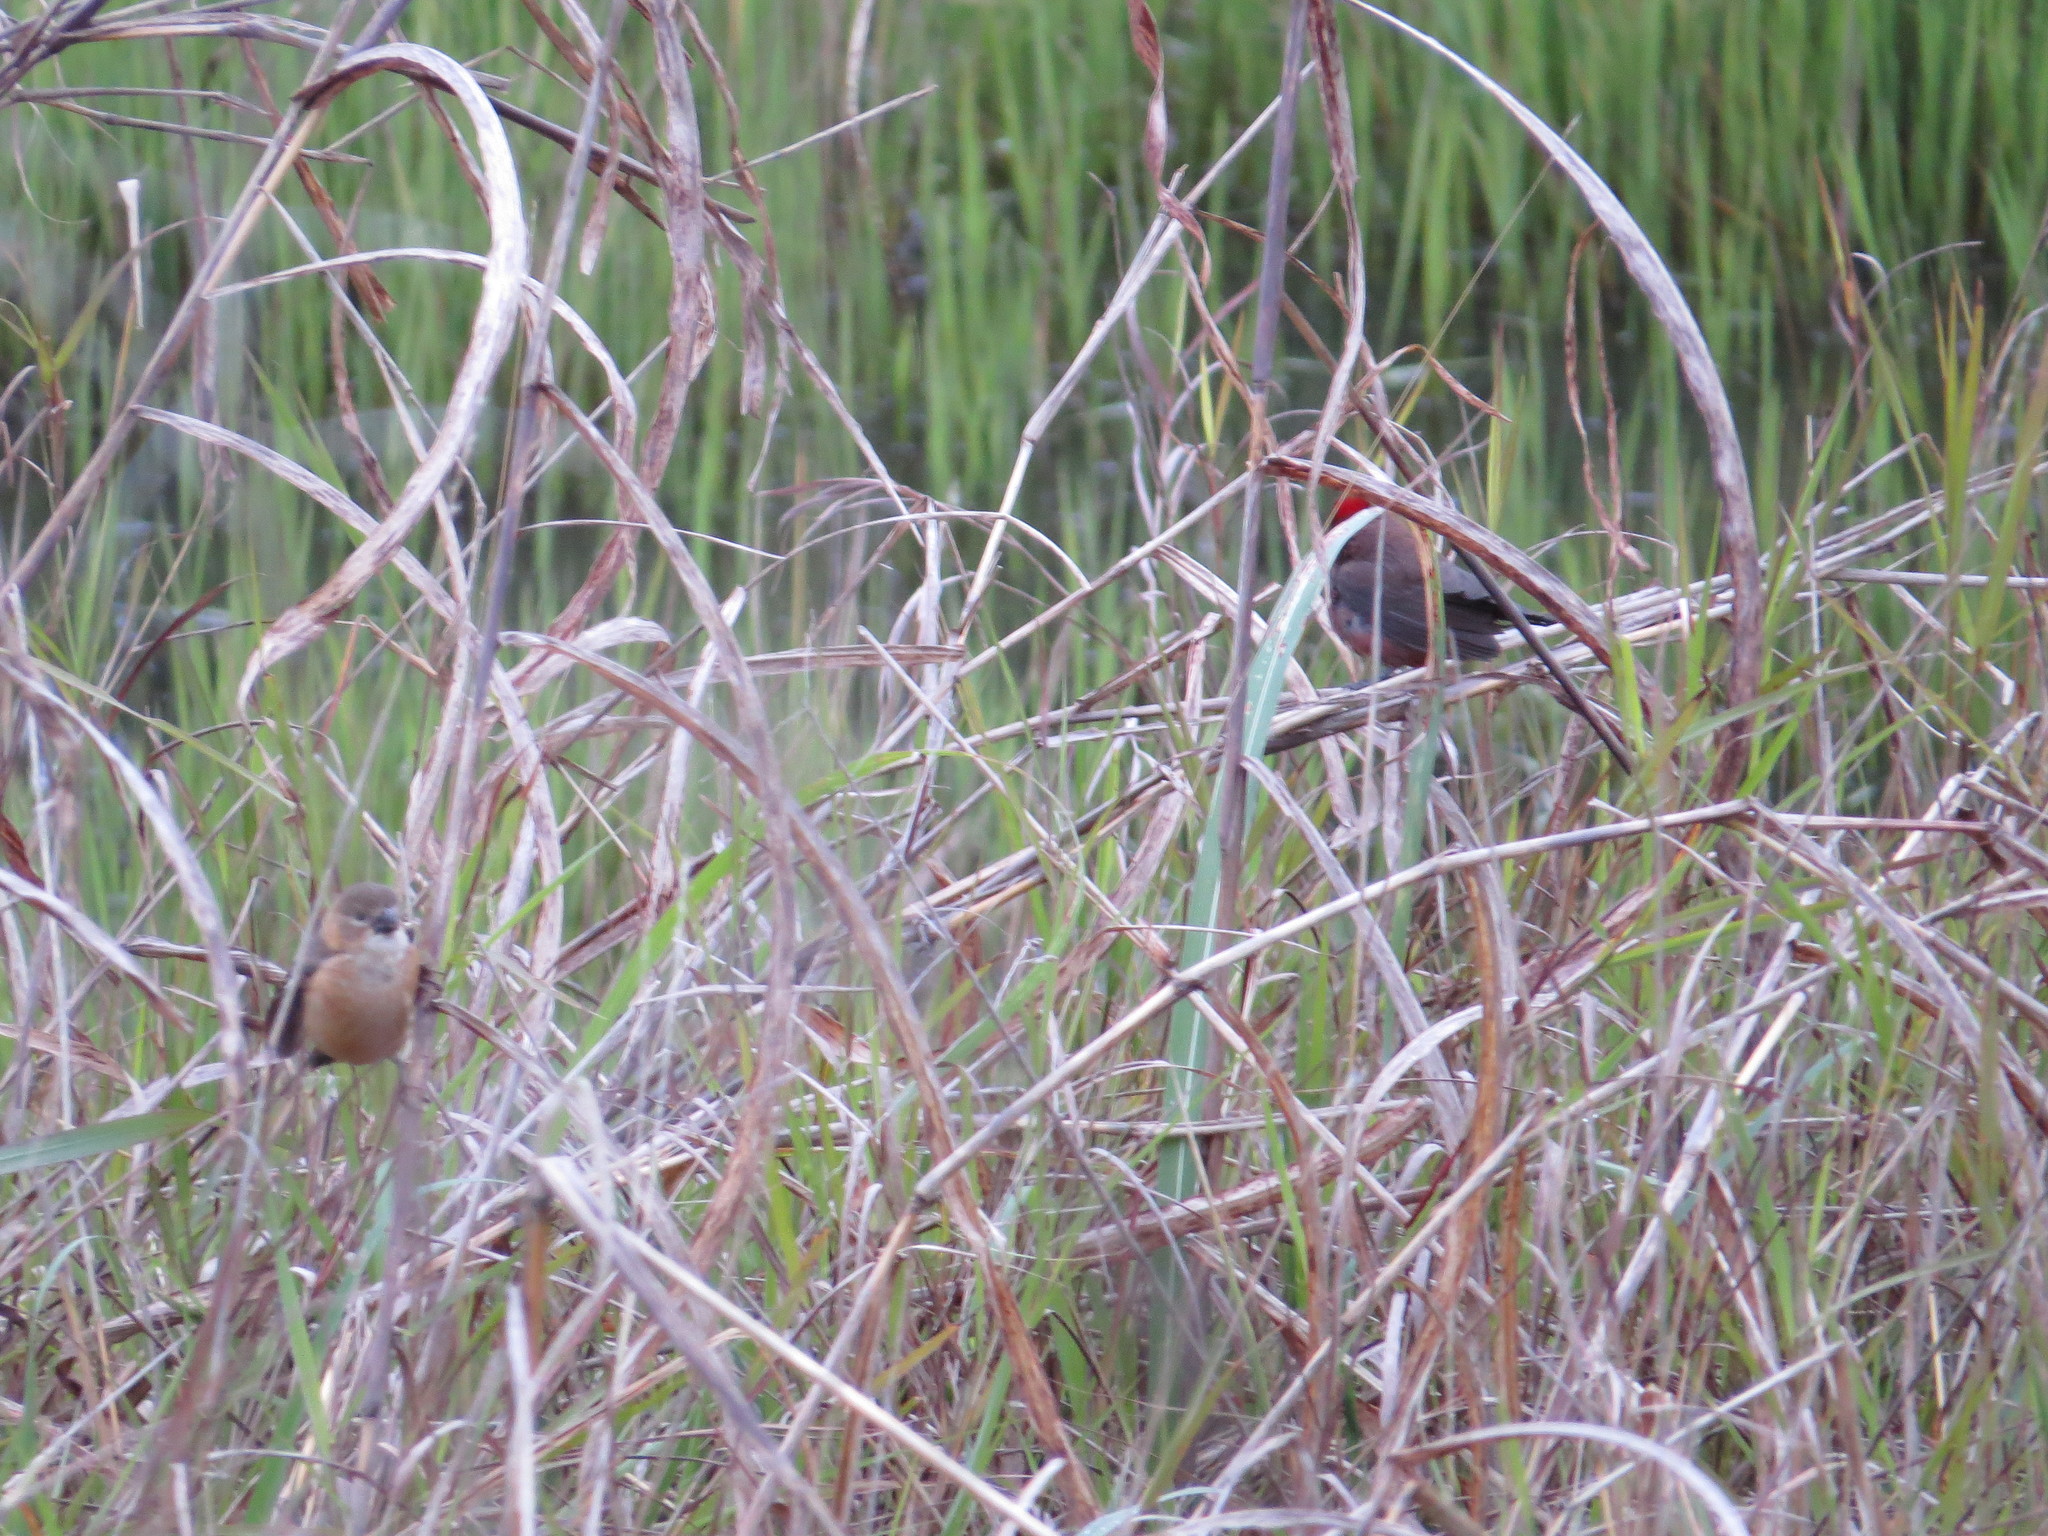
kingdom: Animalia
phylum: Chordata
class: Aves
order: Passeriformes
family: Thraupidae
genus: Coryphospingus
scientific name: Coryphospingus cucullatus
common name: Red pileated finch
